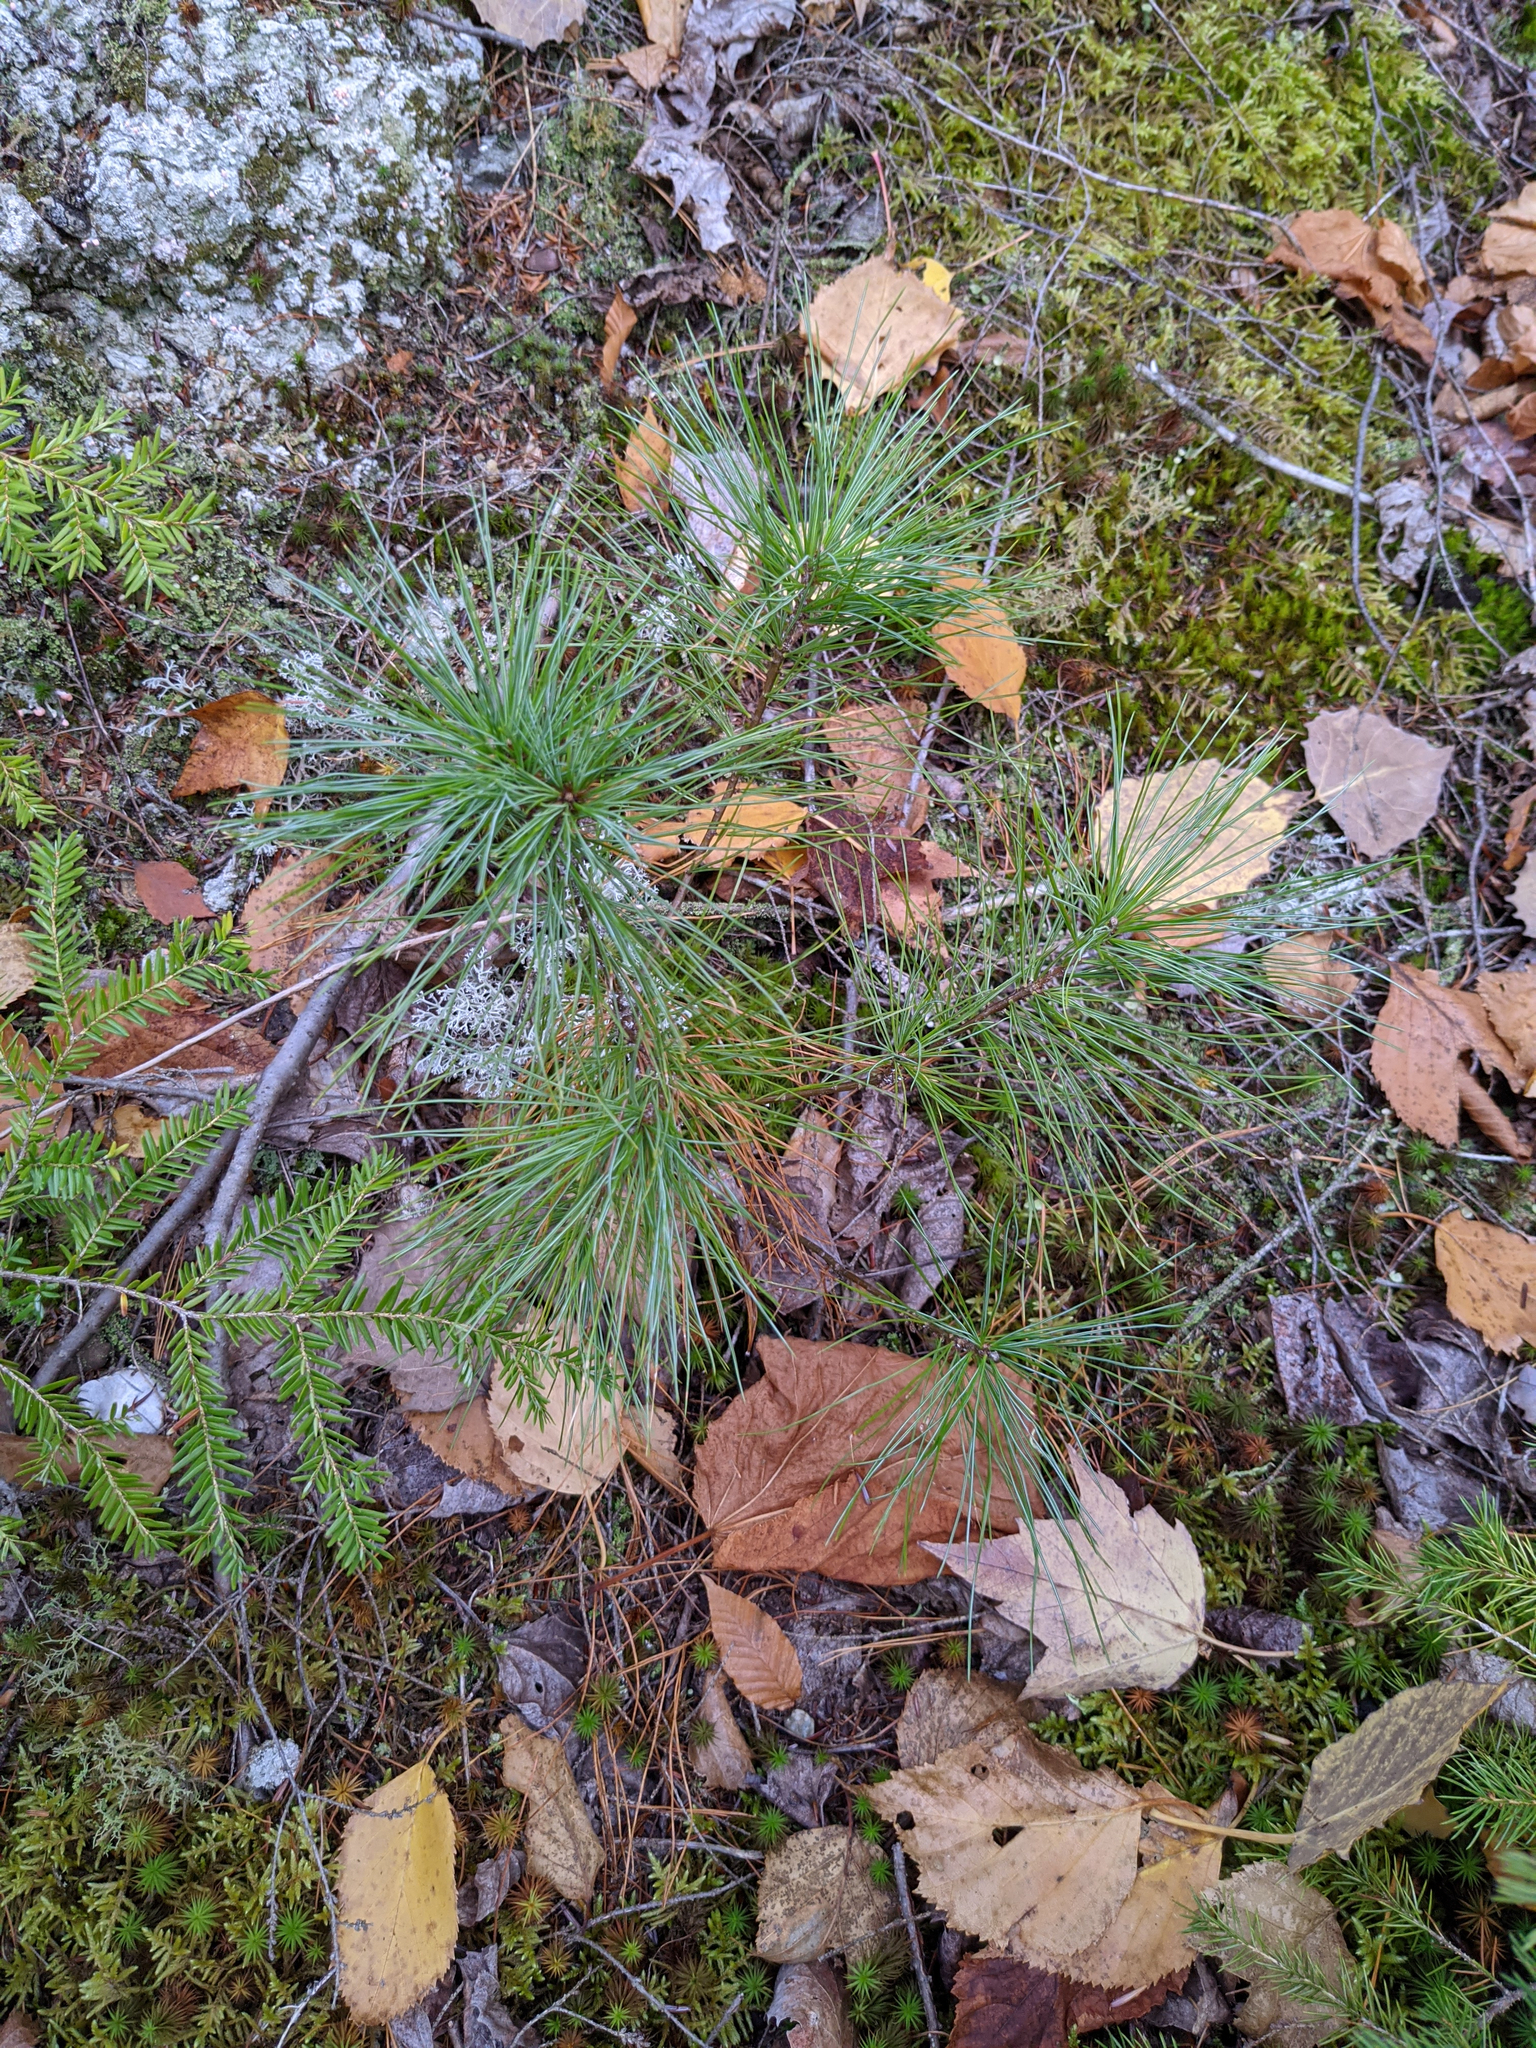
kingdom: Plantae
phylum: Tracheophyta
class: Pinopsida
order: Pinales
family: Pinaceae
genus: Pinus
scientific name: Pinus strobus
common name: Weymouth pine
